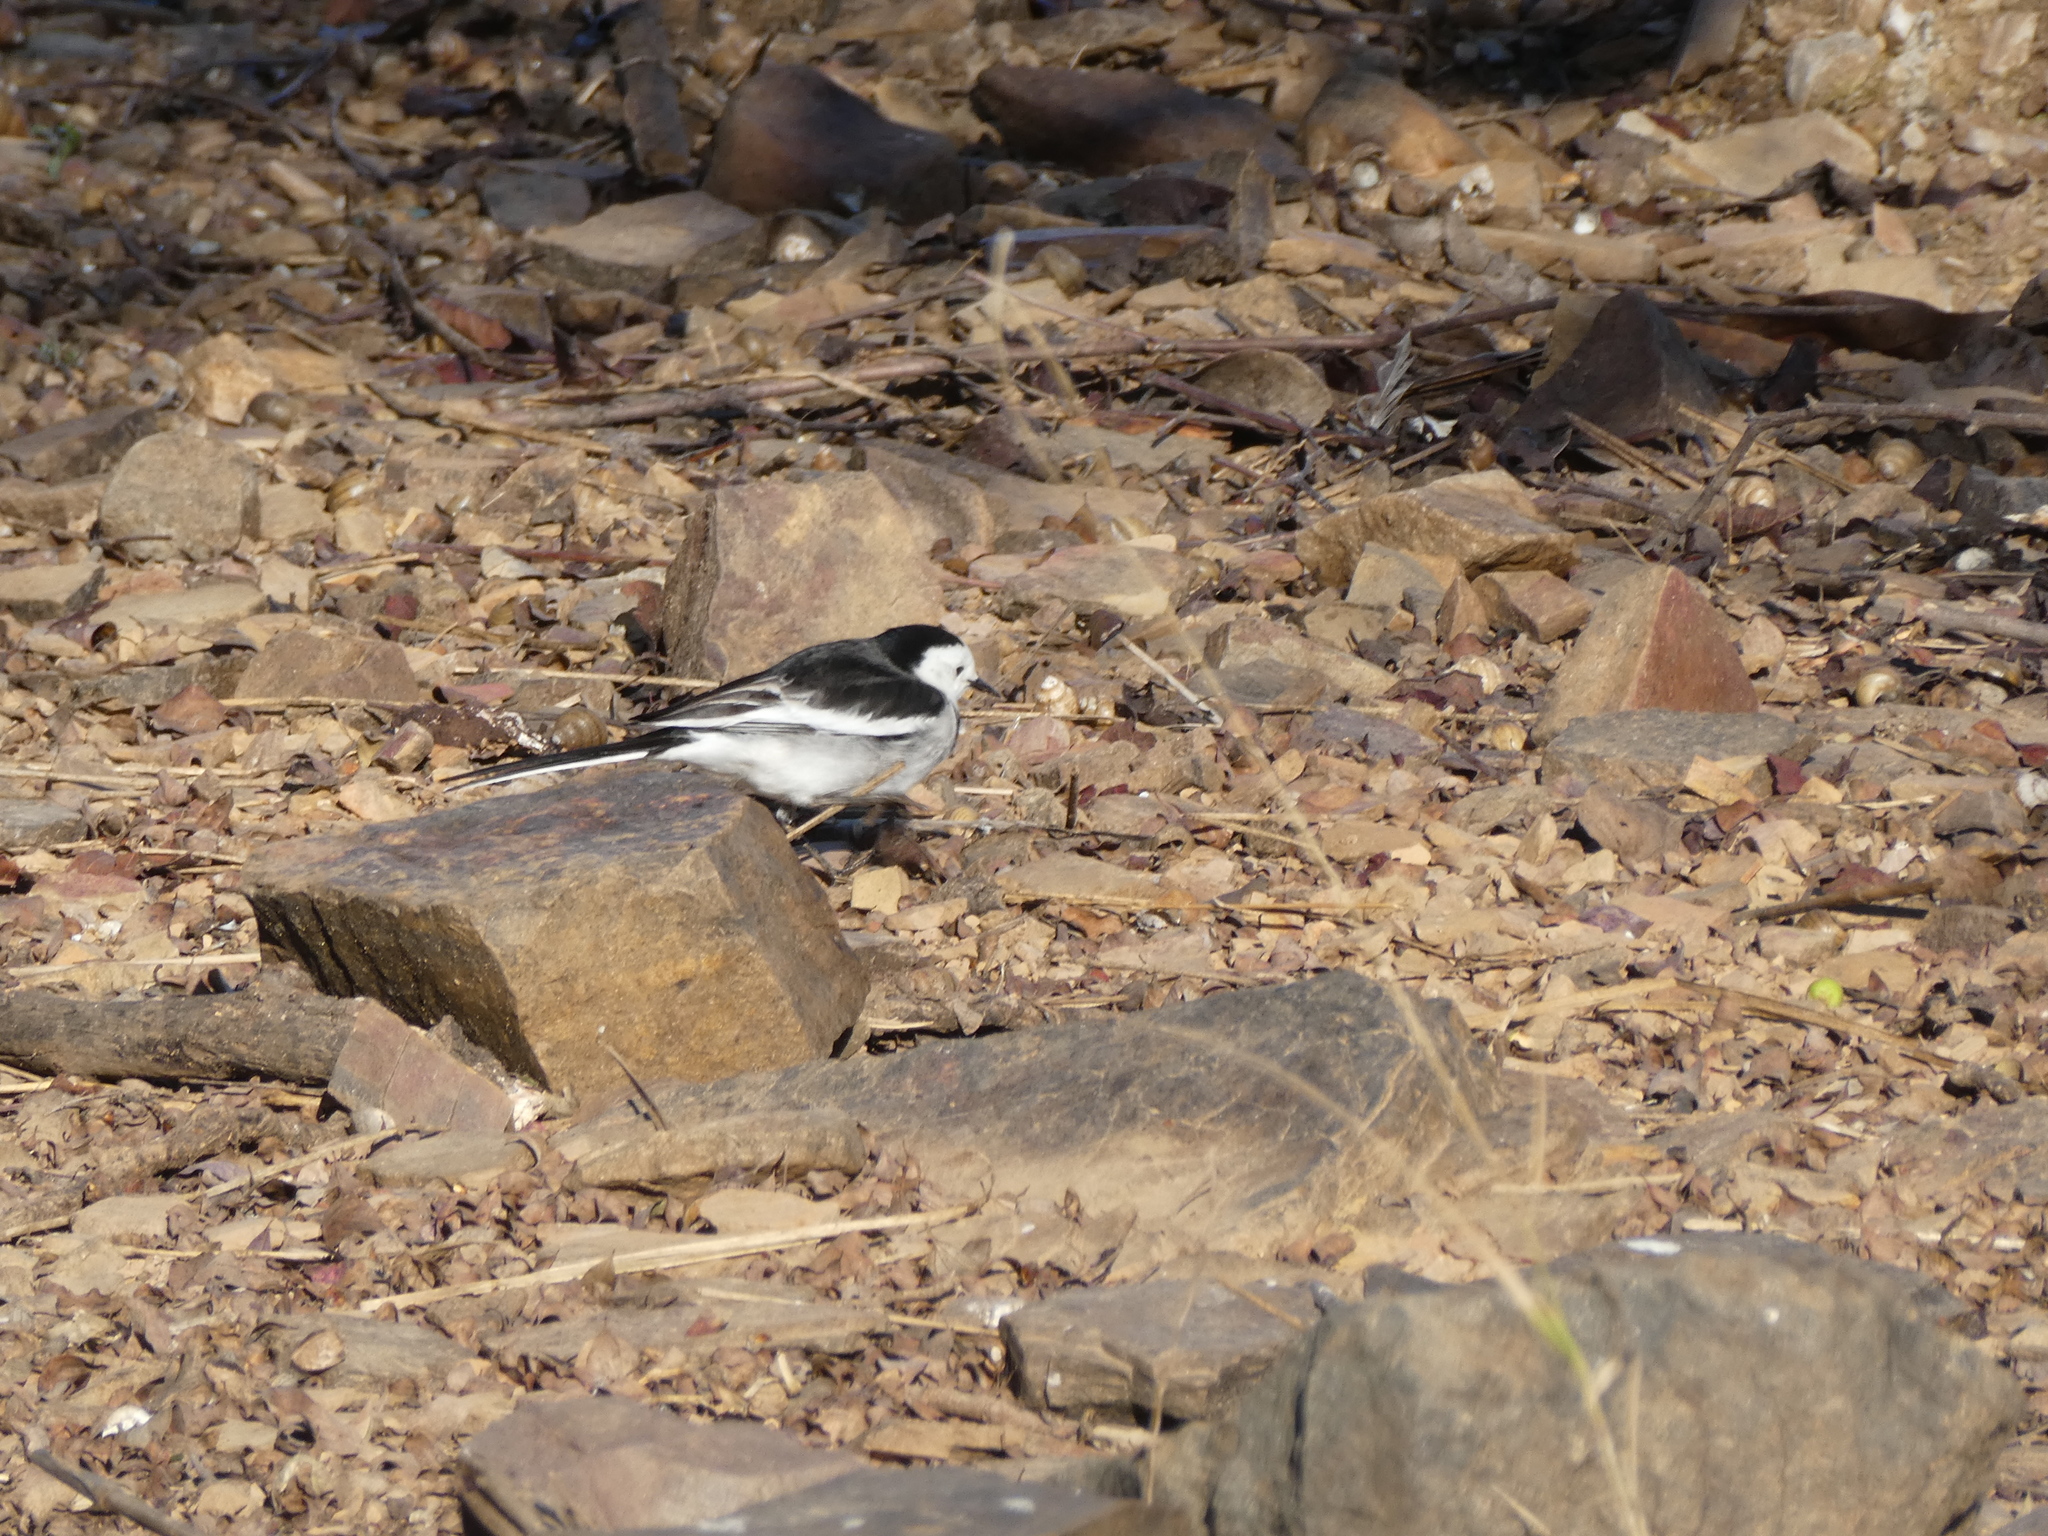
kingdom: Animalia
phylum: Chordata
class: Aves
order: Passeriformes
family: Motacillidae
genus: Motacilla
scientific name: Motacilla alba
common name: White wagtail
